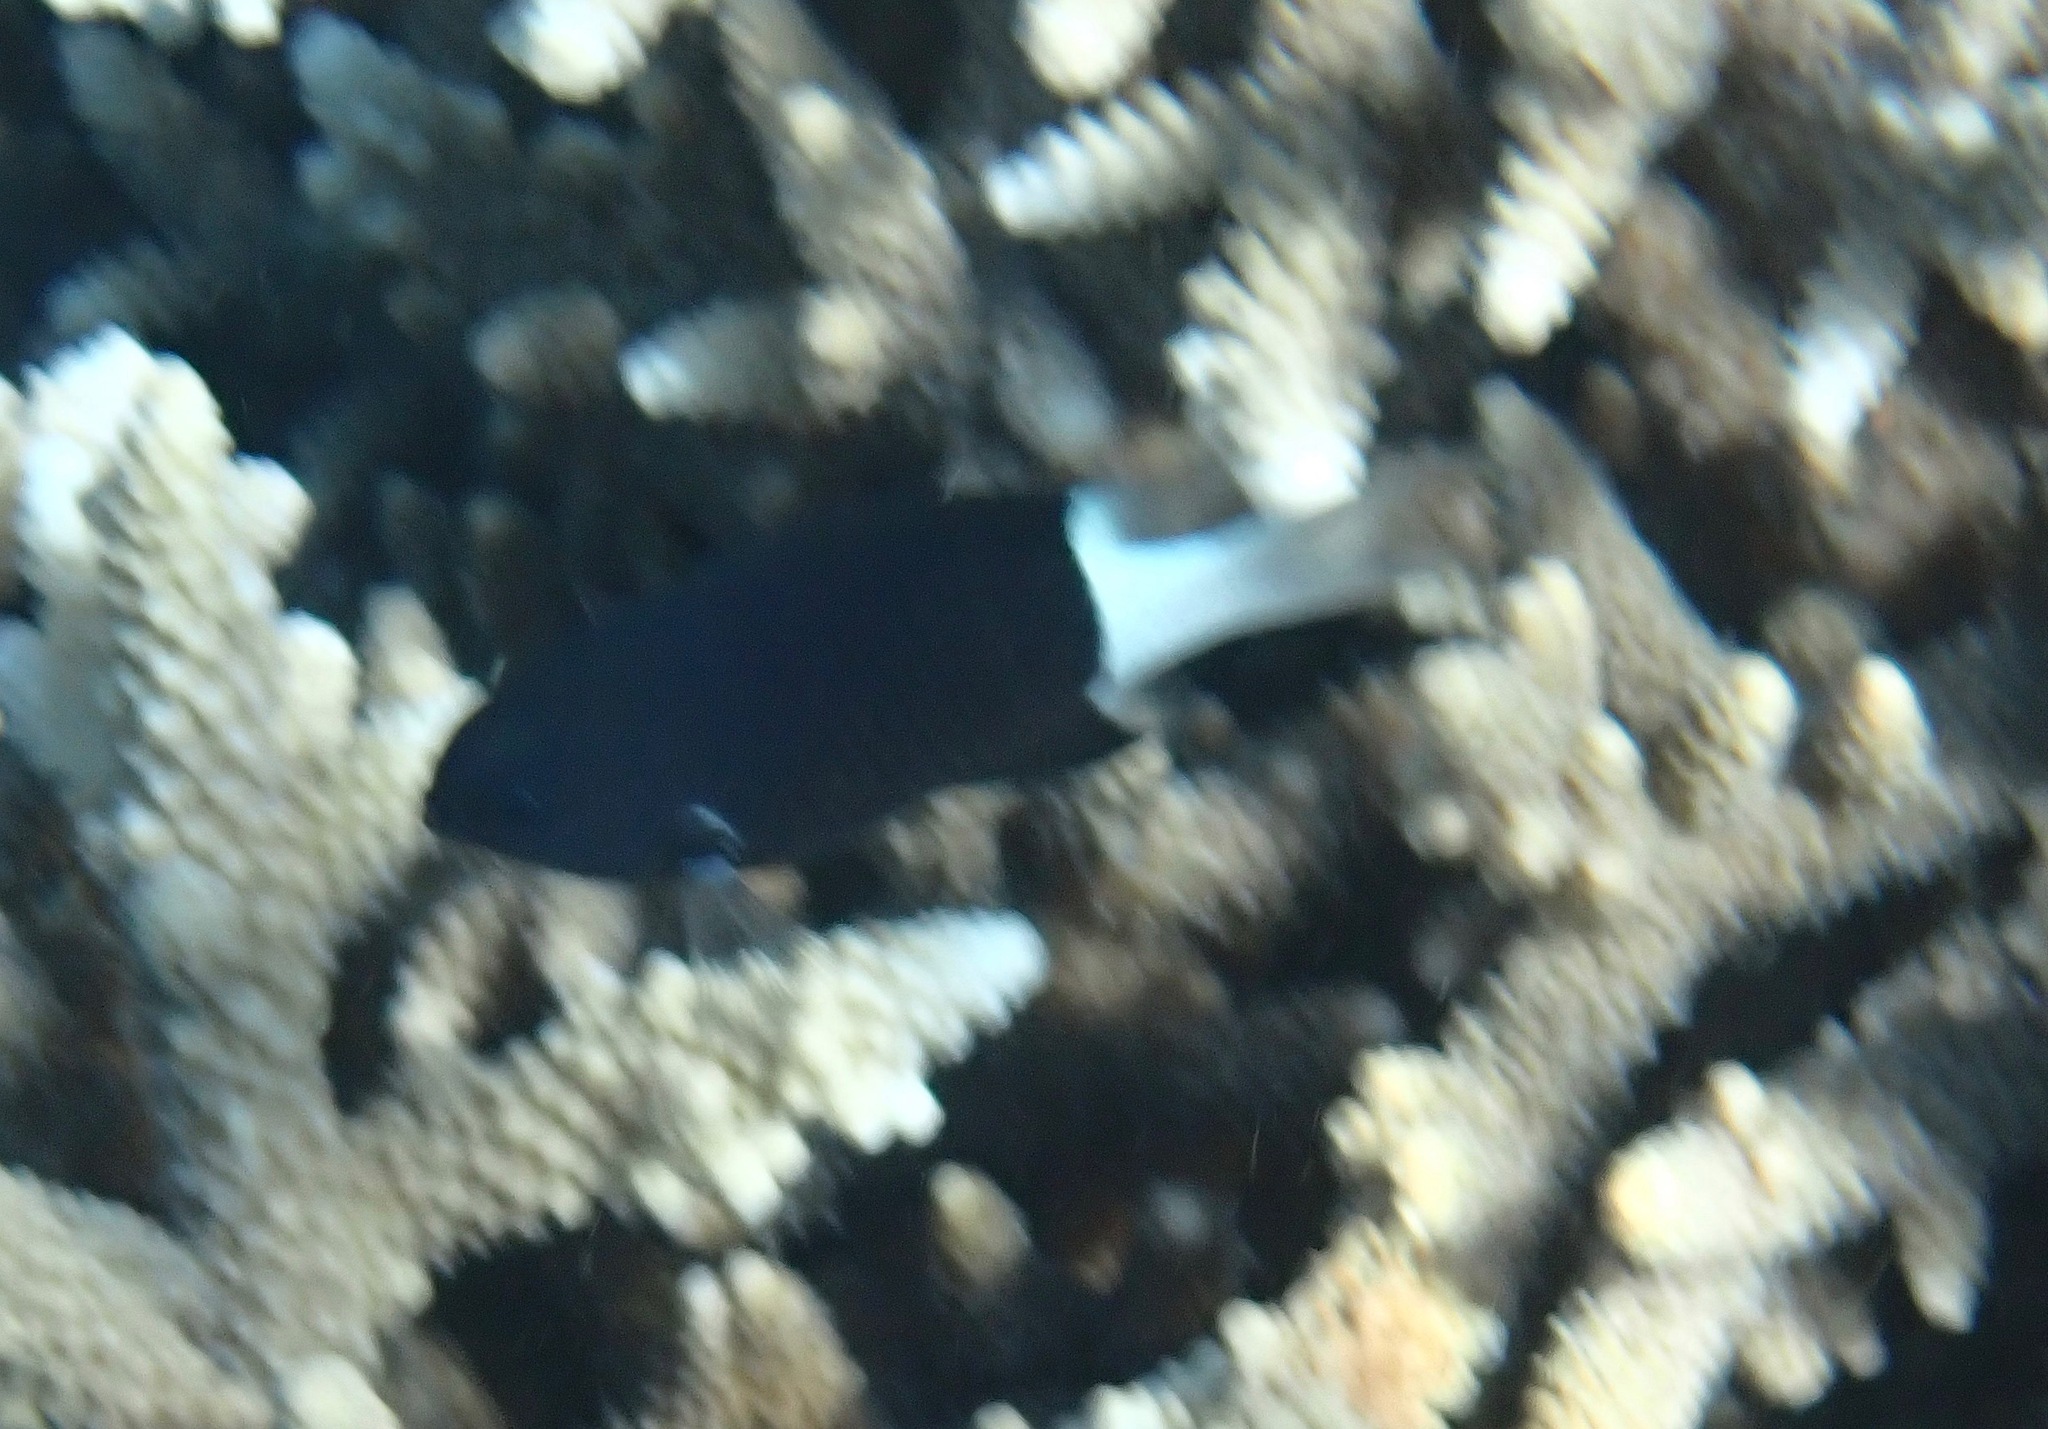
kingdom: Animalia
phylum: Chordata
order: Perciformes
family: Pomacentridae
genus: Pycnochromis
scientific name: Pycnochromis margaritifer
